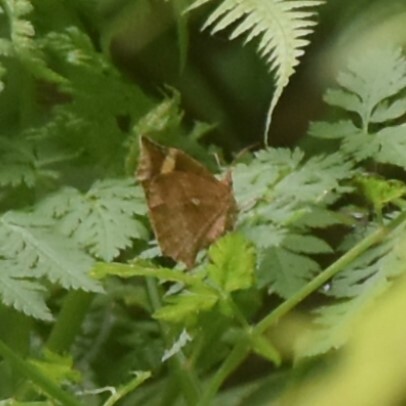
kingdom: Animalia
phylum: Arthropoda
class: Insecta
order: Lepidoptera
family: Callidulidae
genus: Pterodecta
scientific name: Pterodecta anchora
